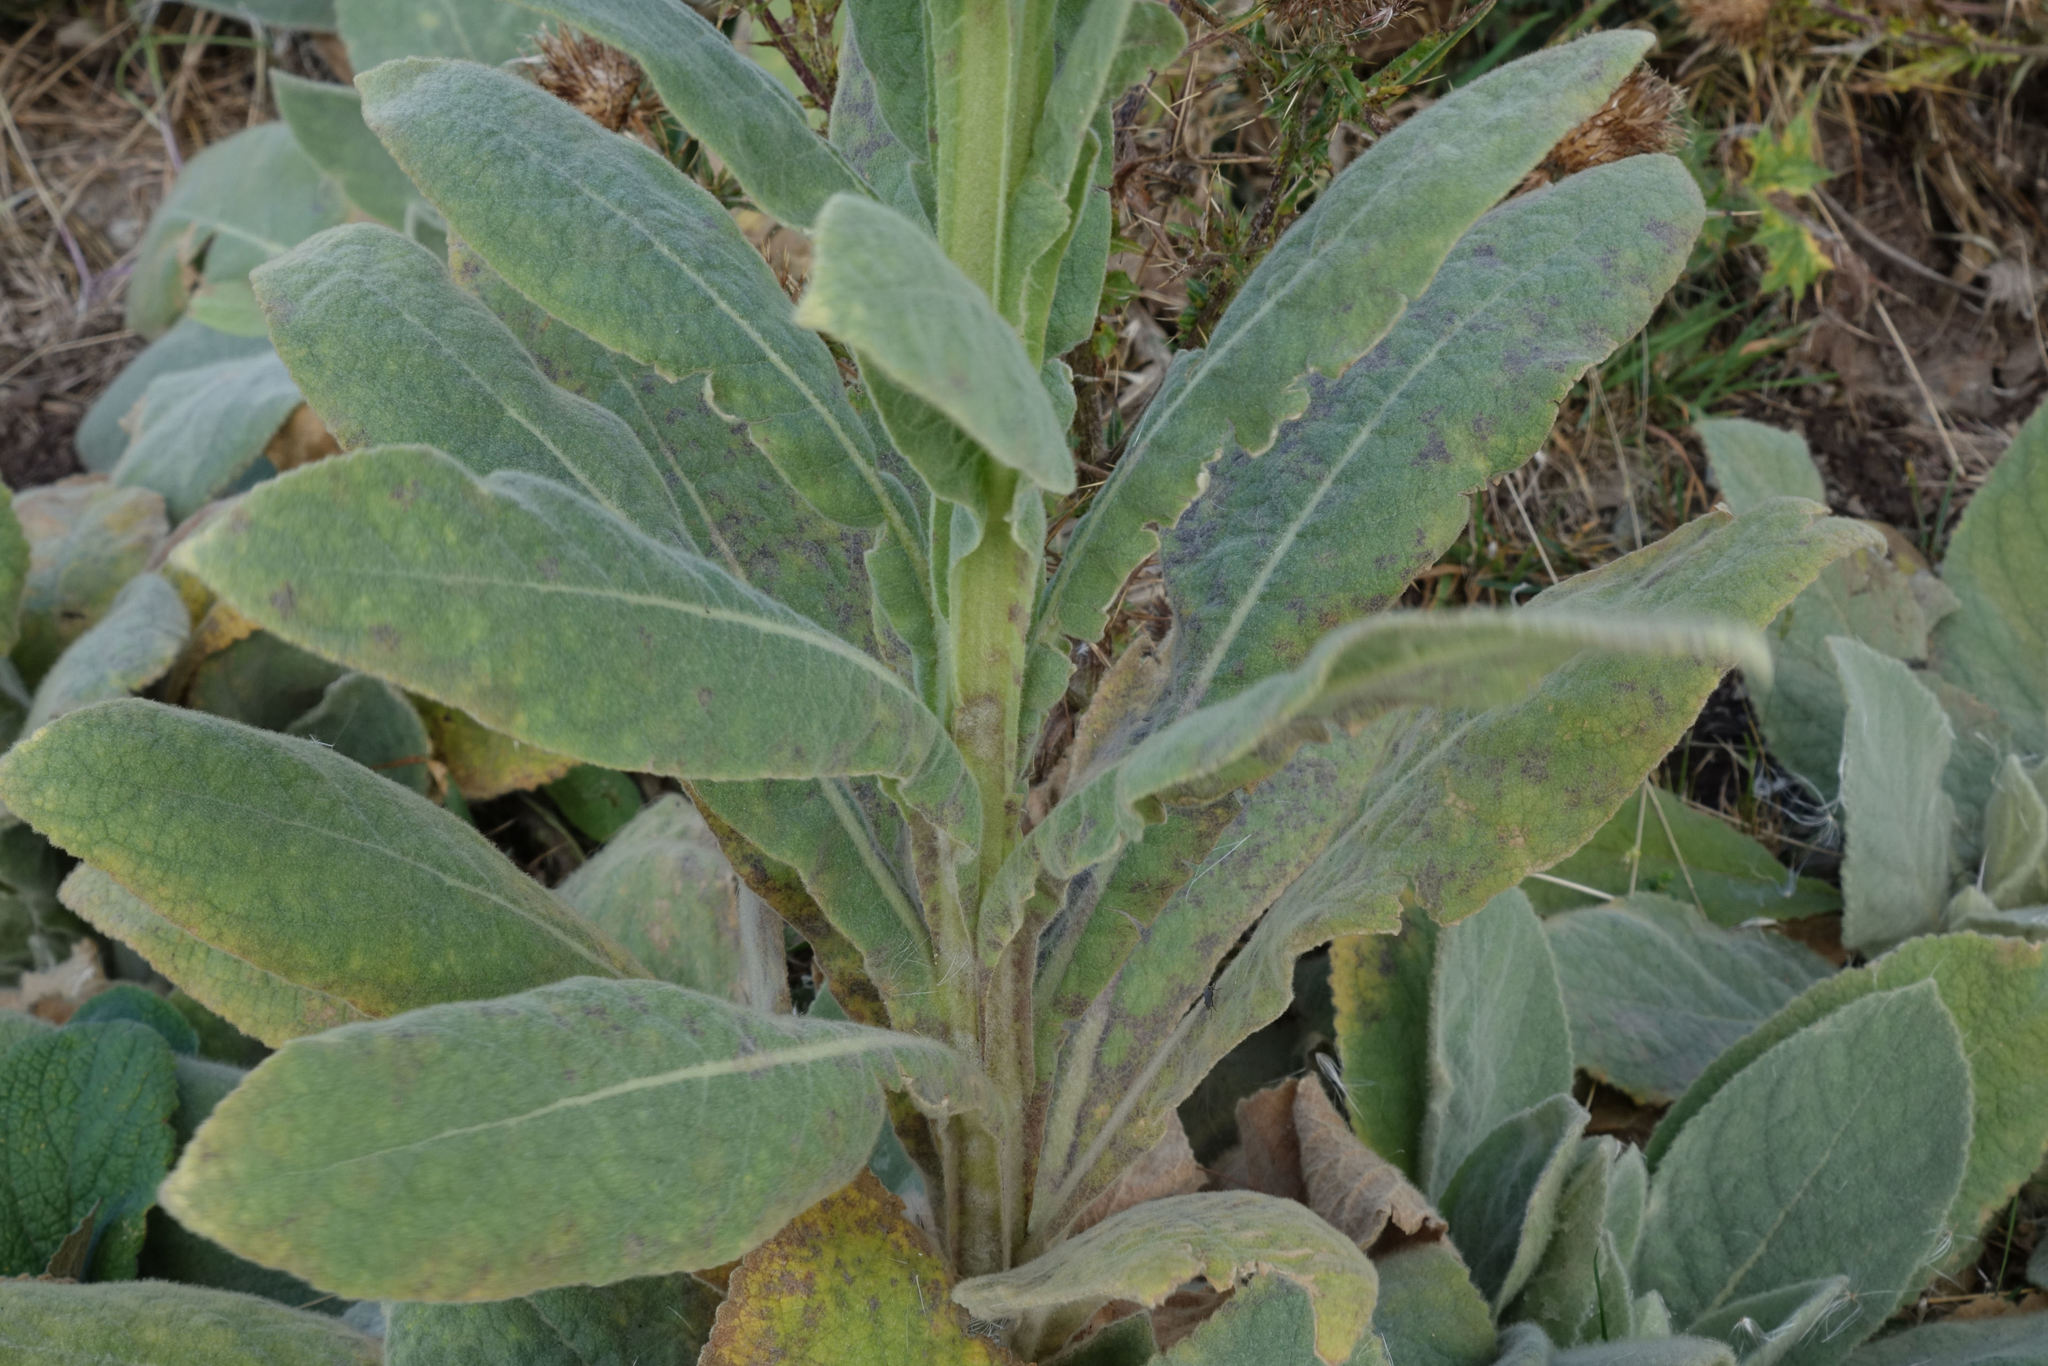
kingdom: Plantae
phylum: Tracheophyta
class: Magnoliopsida
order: Lamiales
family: Scrophulariaceae
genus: Verbascum
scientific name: Verbascum thapsus
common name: Common mullein
